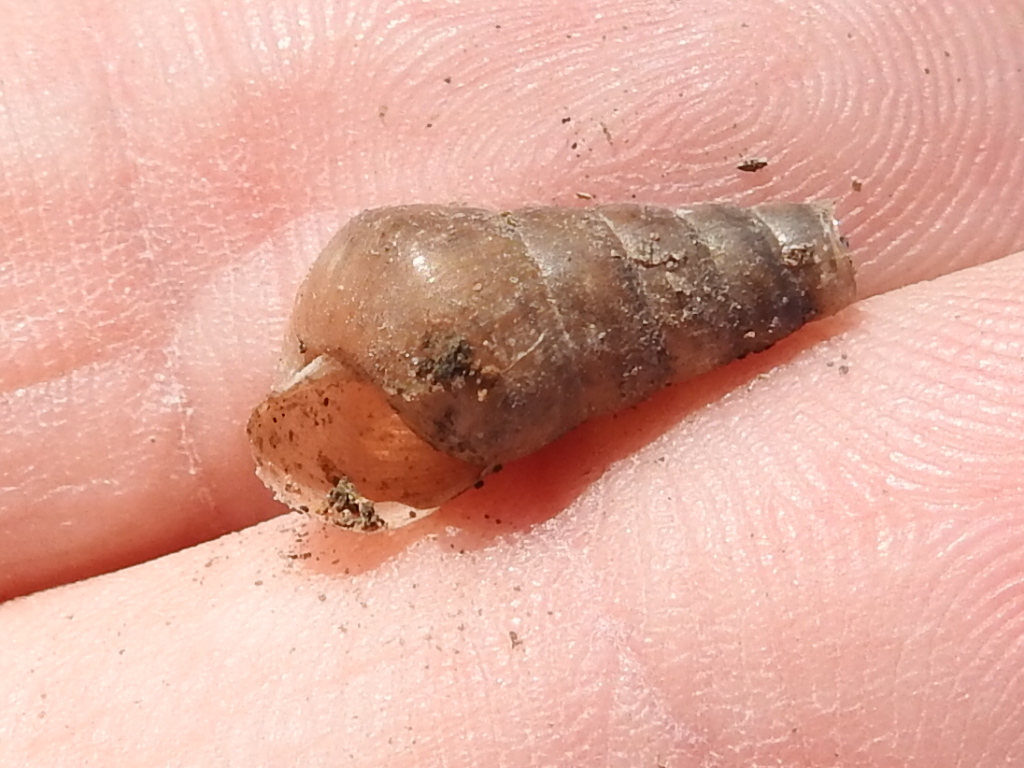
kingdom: Animalia
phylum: Mollusca
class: Gastropoda
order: Stylommatophora
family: Achatinidae
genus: Rumina
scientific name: Rumina decollata
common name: Decollate snail
